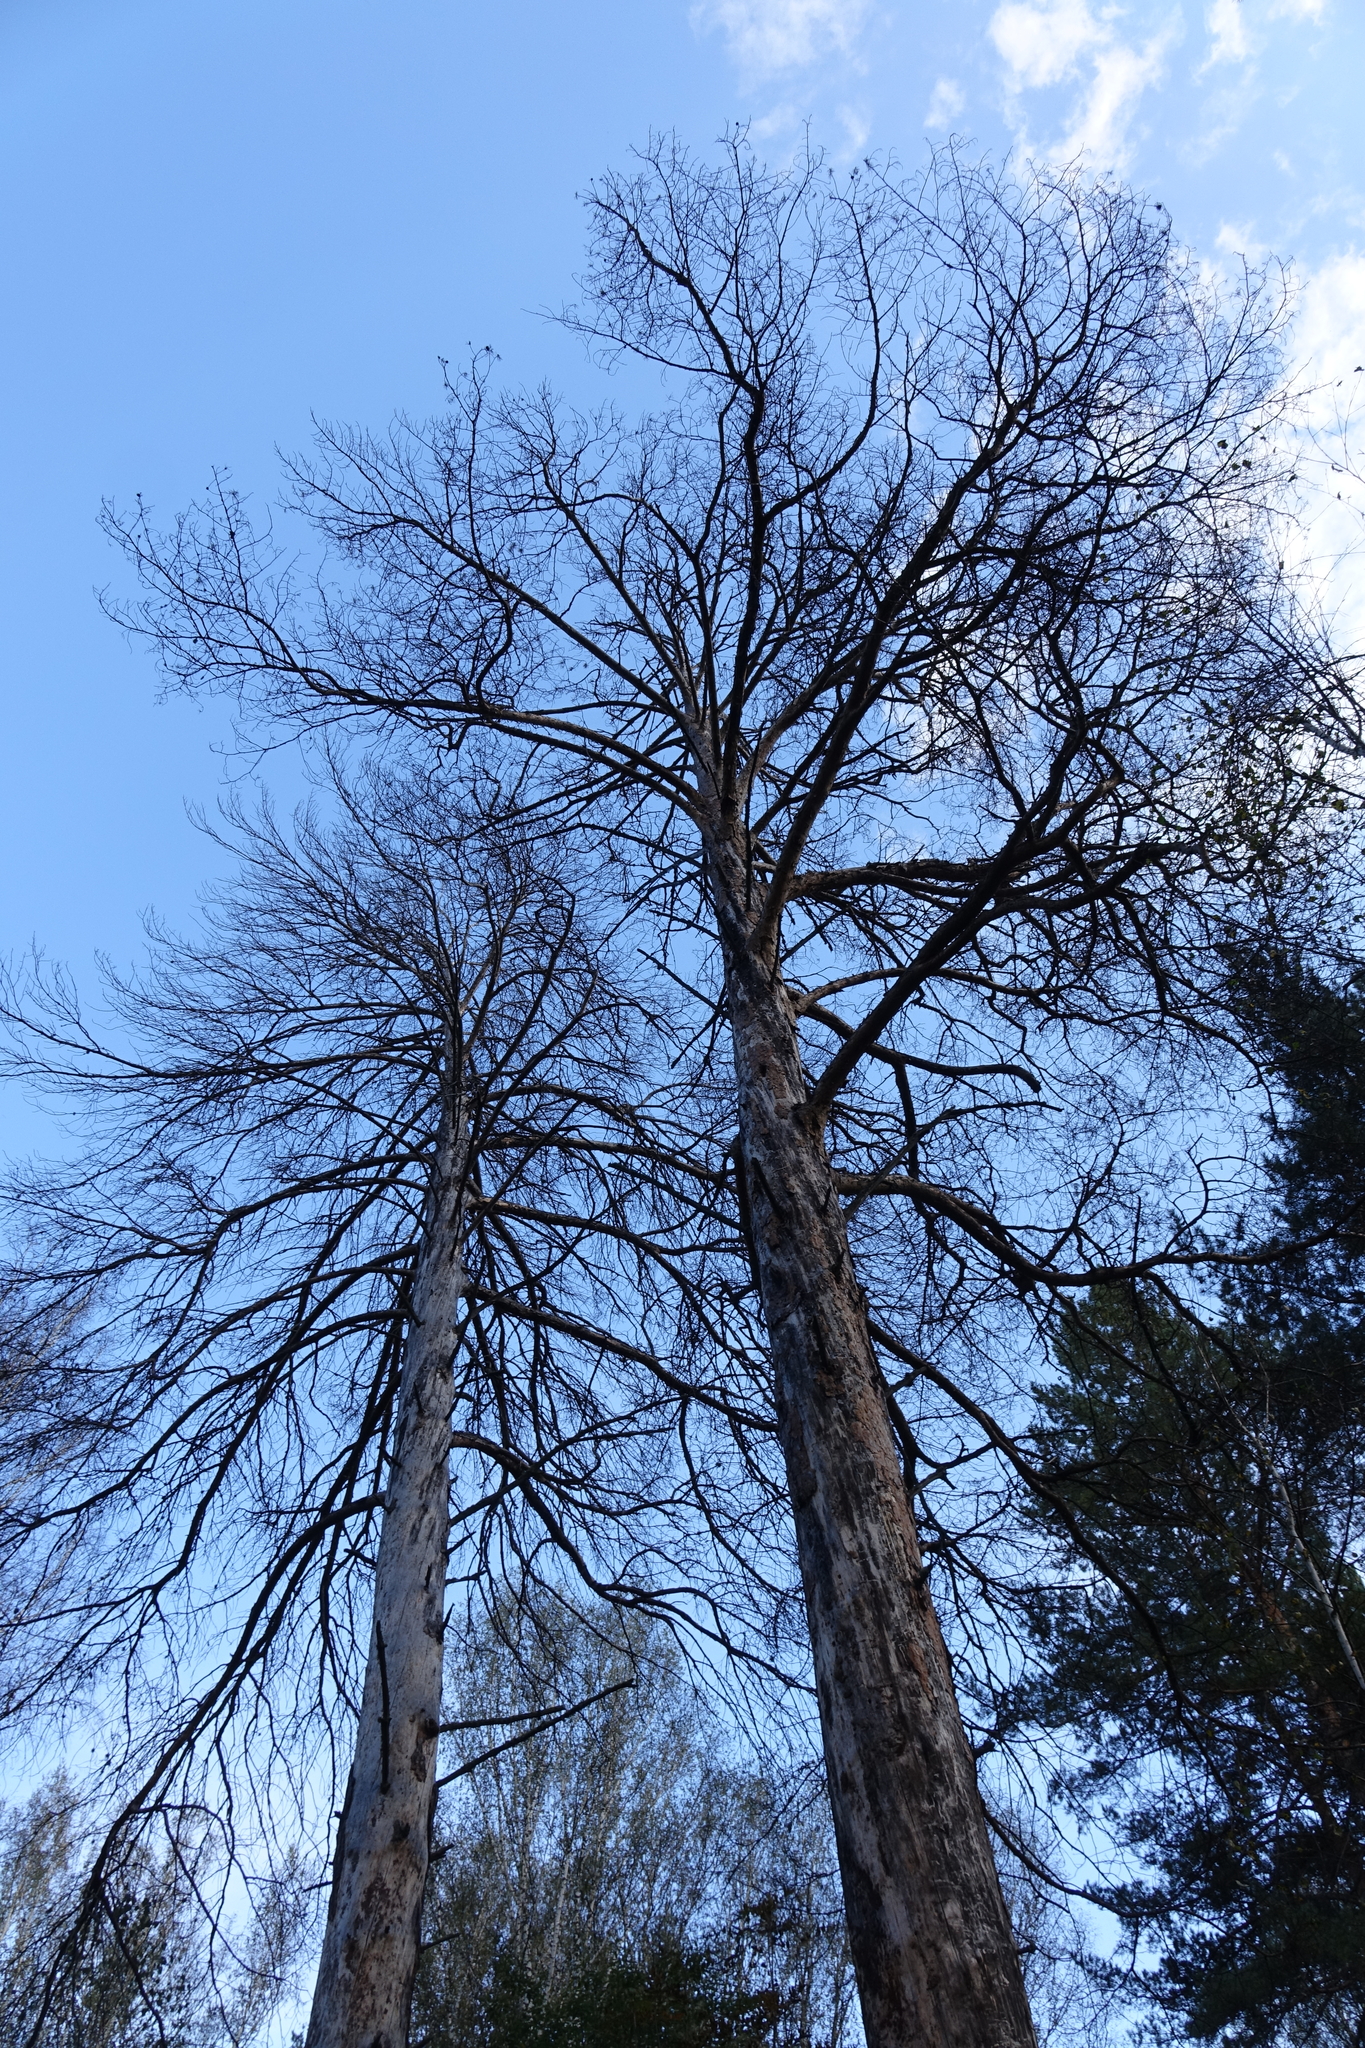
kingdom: Plantae
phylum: Tracheophyta
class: Pinopsida
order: Pinales
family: Pinaceae
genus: Pinus
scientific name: Pinus sylvestris
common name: Scots pine
